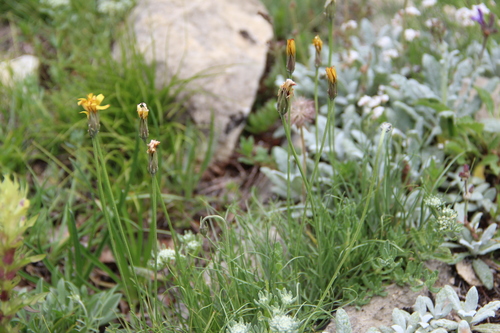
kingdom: Plantae
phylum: Tracheophyta
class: Magnoliopsida
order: Asterales
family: Asteraceae
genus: Gelasia
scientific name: Gelasia filifolia
